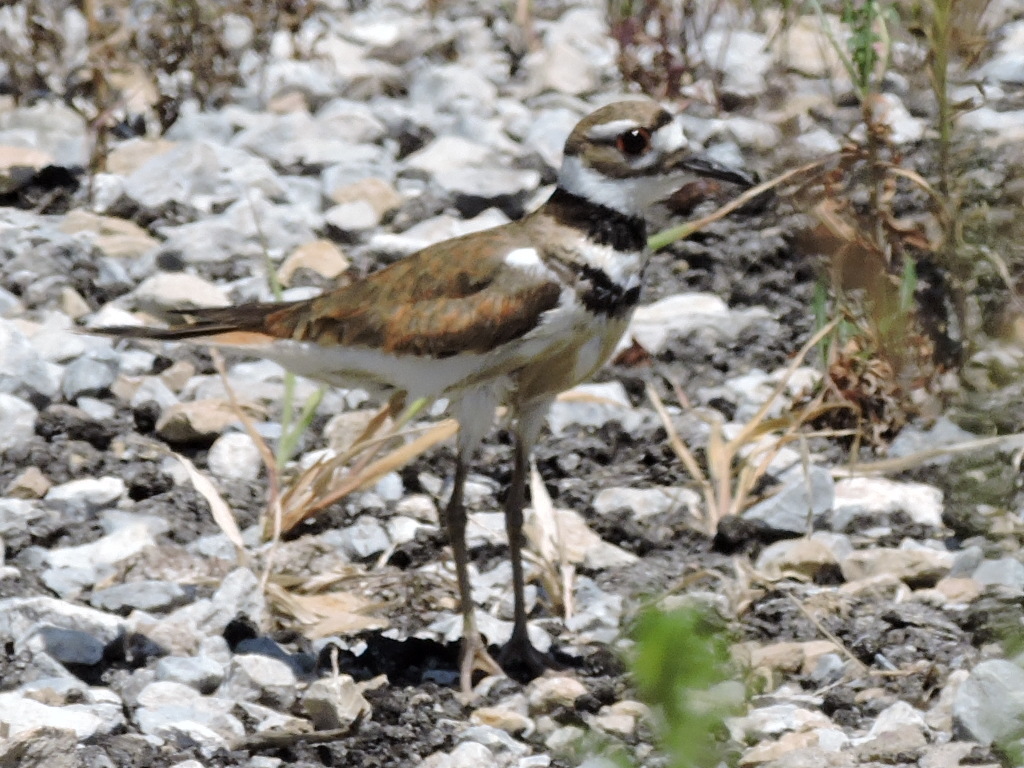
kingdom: Animalia
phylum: Chordata
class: Aves
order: Charadriiformes
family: Charadriidae
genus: Charadrius
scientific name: Charadrius vociferus
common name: Killdeer
